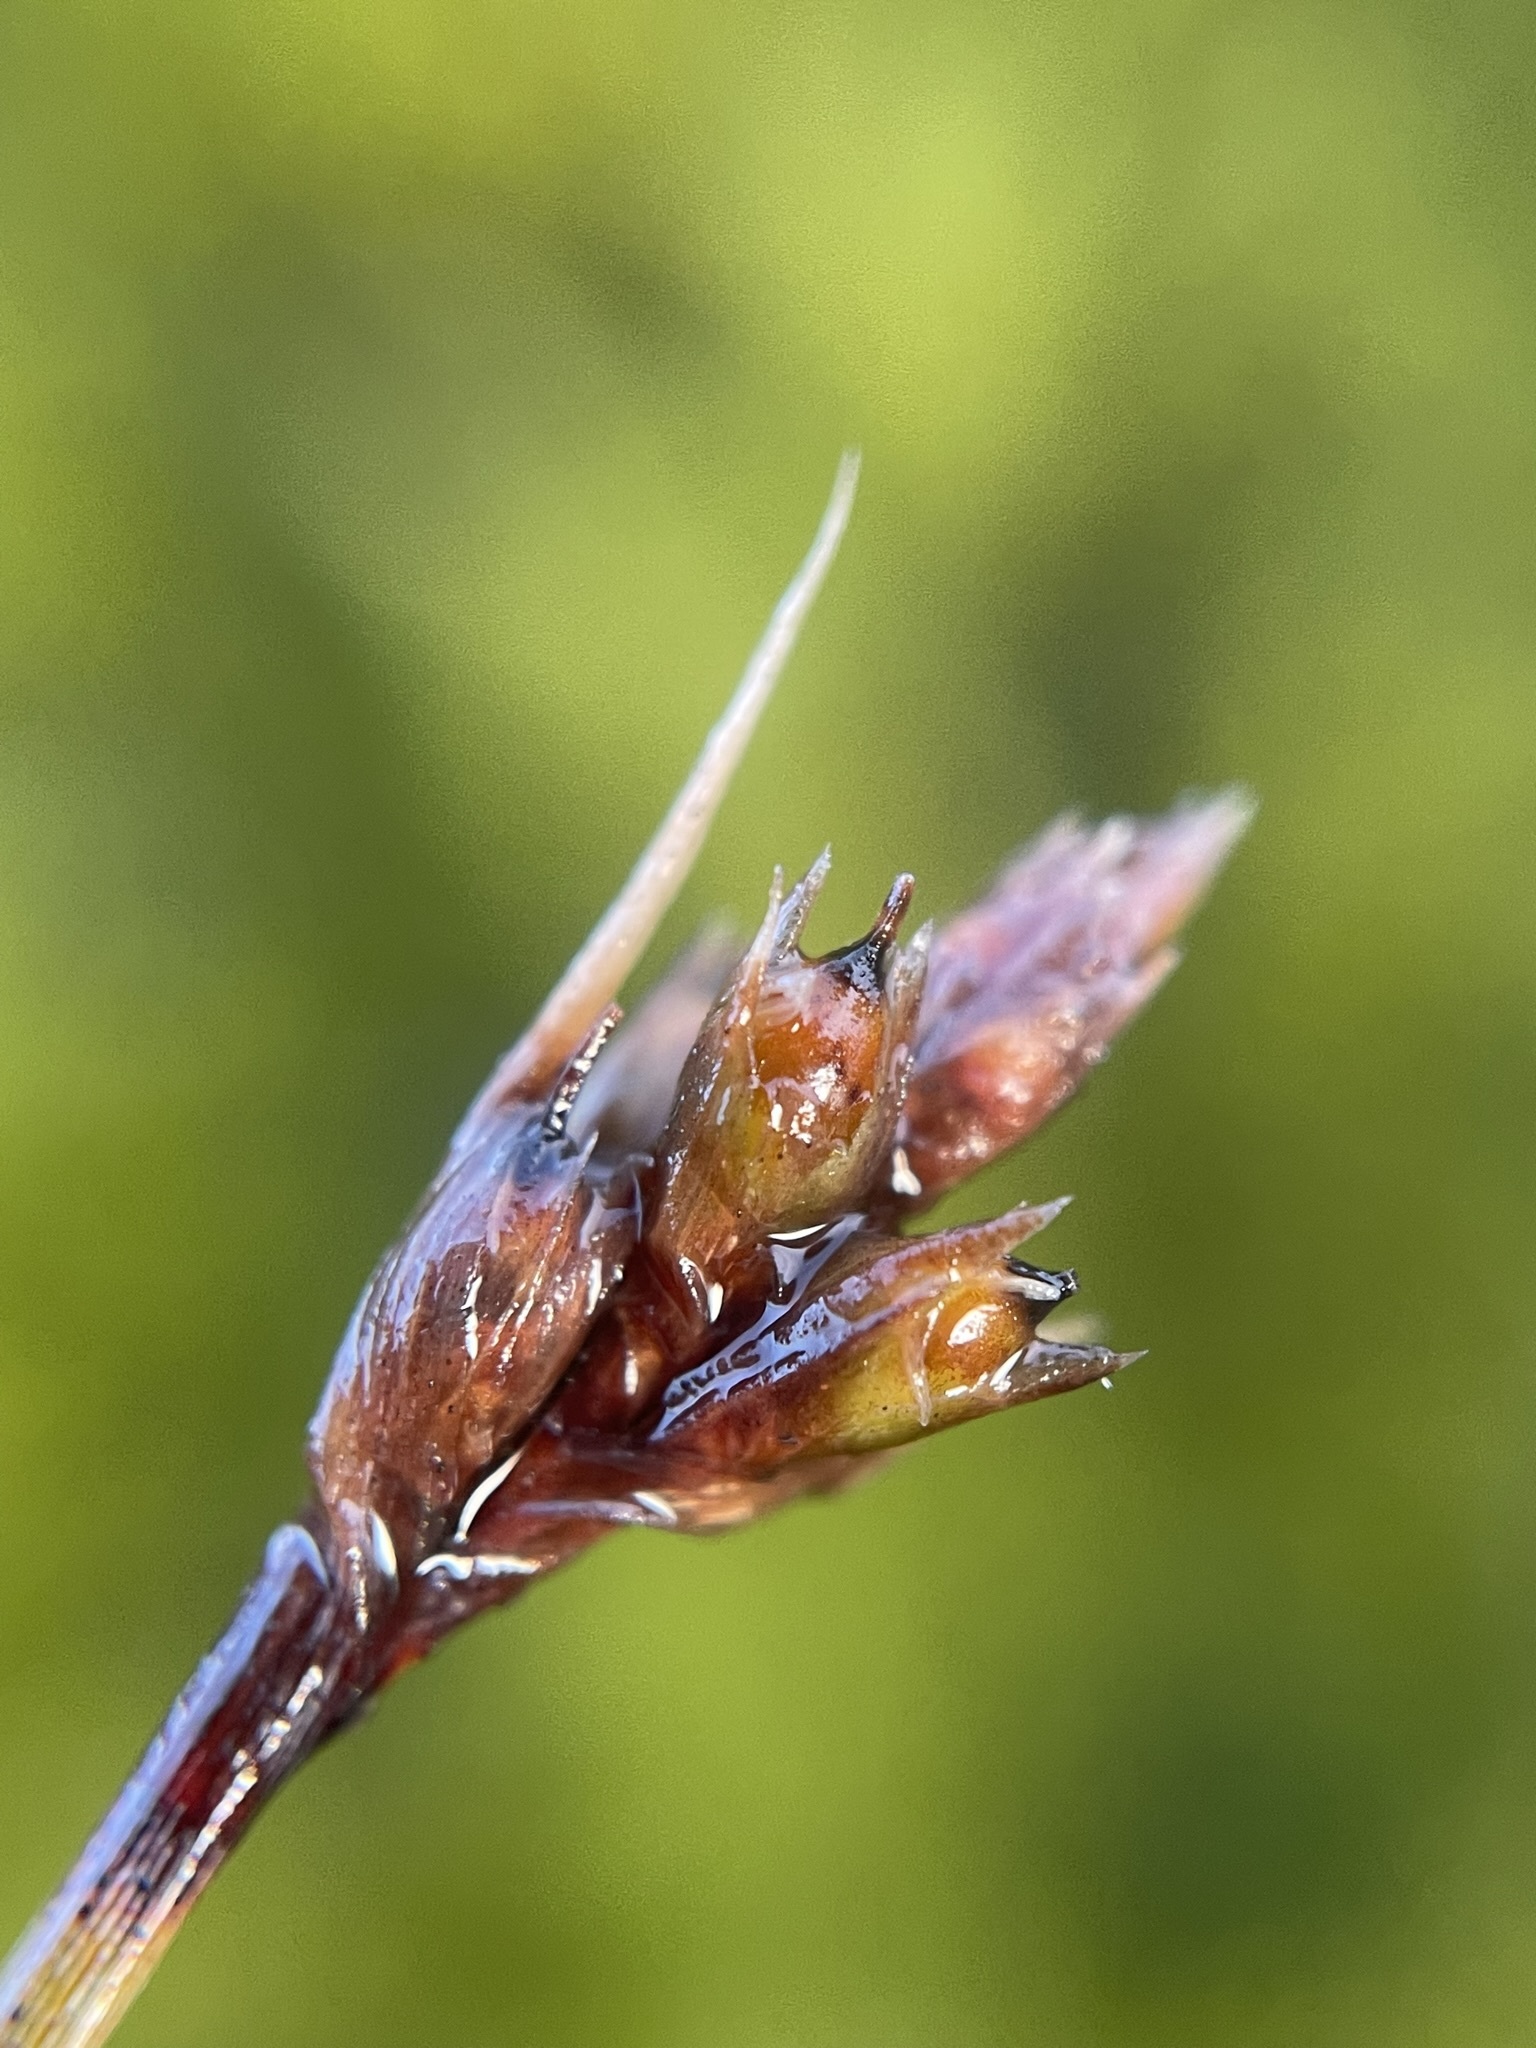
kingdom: Plantae
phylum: Tracheophyta
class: Liliopsida
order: Poales
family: Cyperaceae
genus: Lepidosperma
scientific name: Lepidosperma australe
